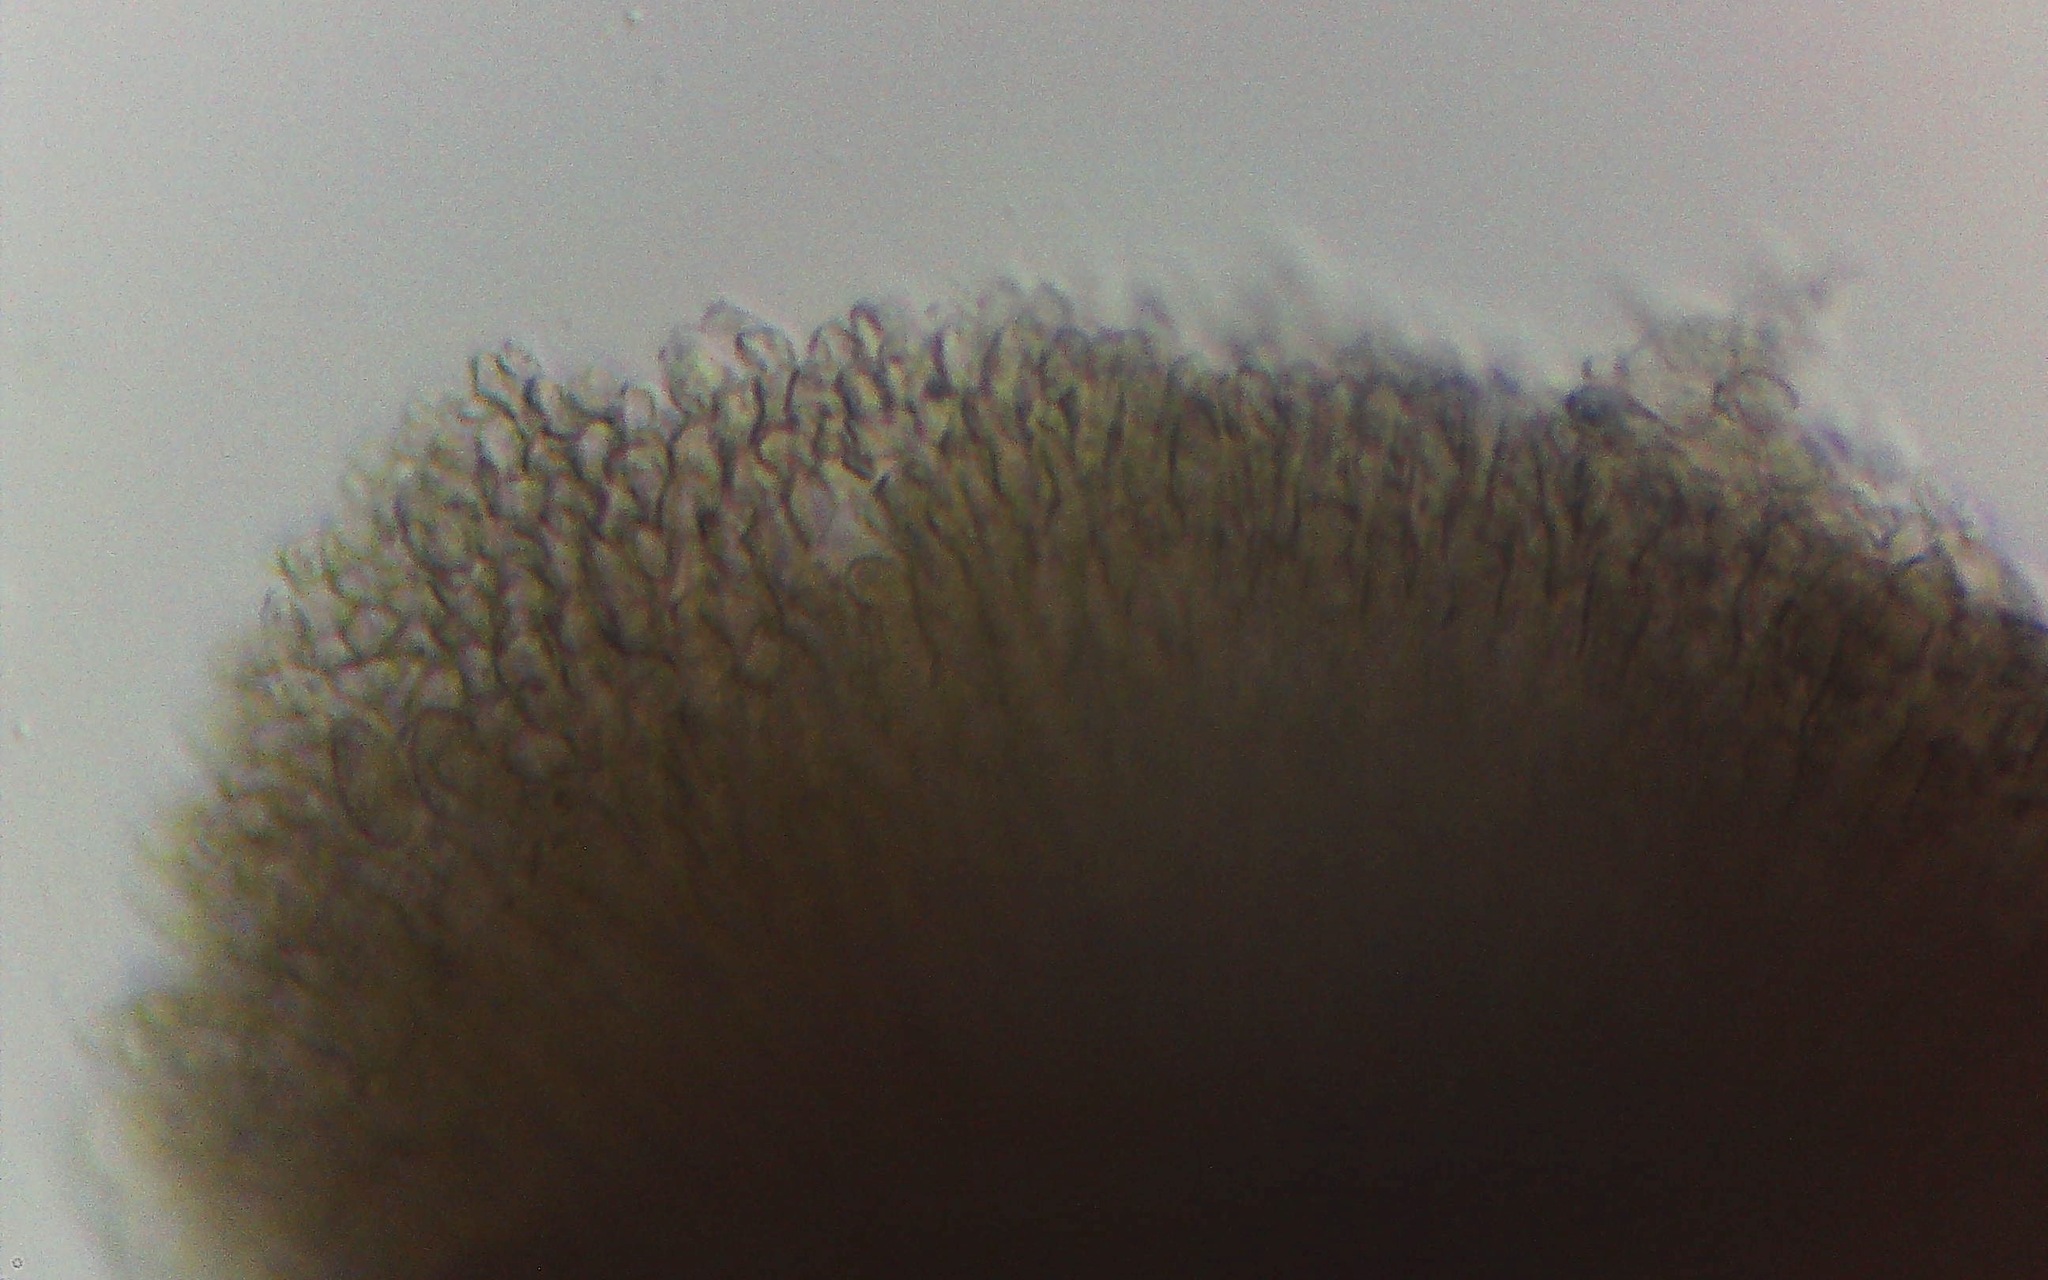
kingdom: Fungi
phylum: Ascomycota
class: Sordariomycetes
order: Xylariales
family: Xylariaceae
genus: Xylaria
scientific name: Xylaria penicilliopsis
